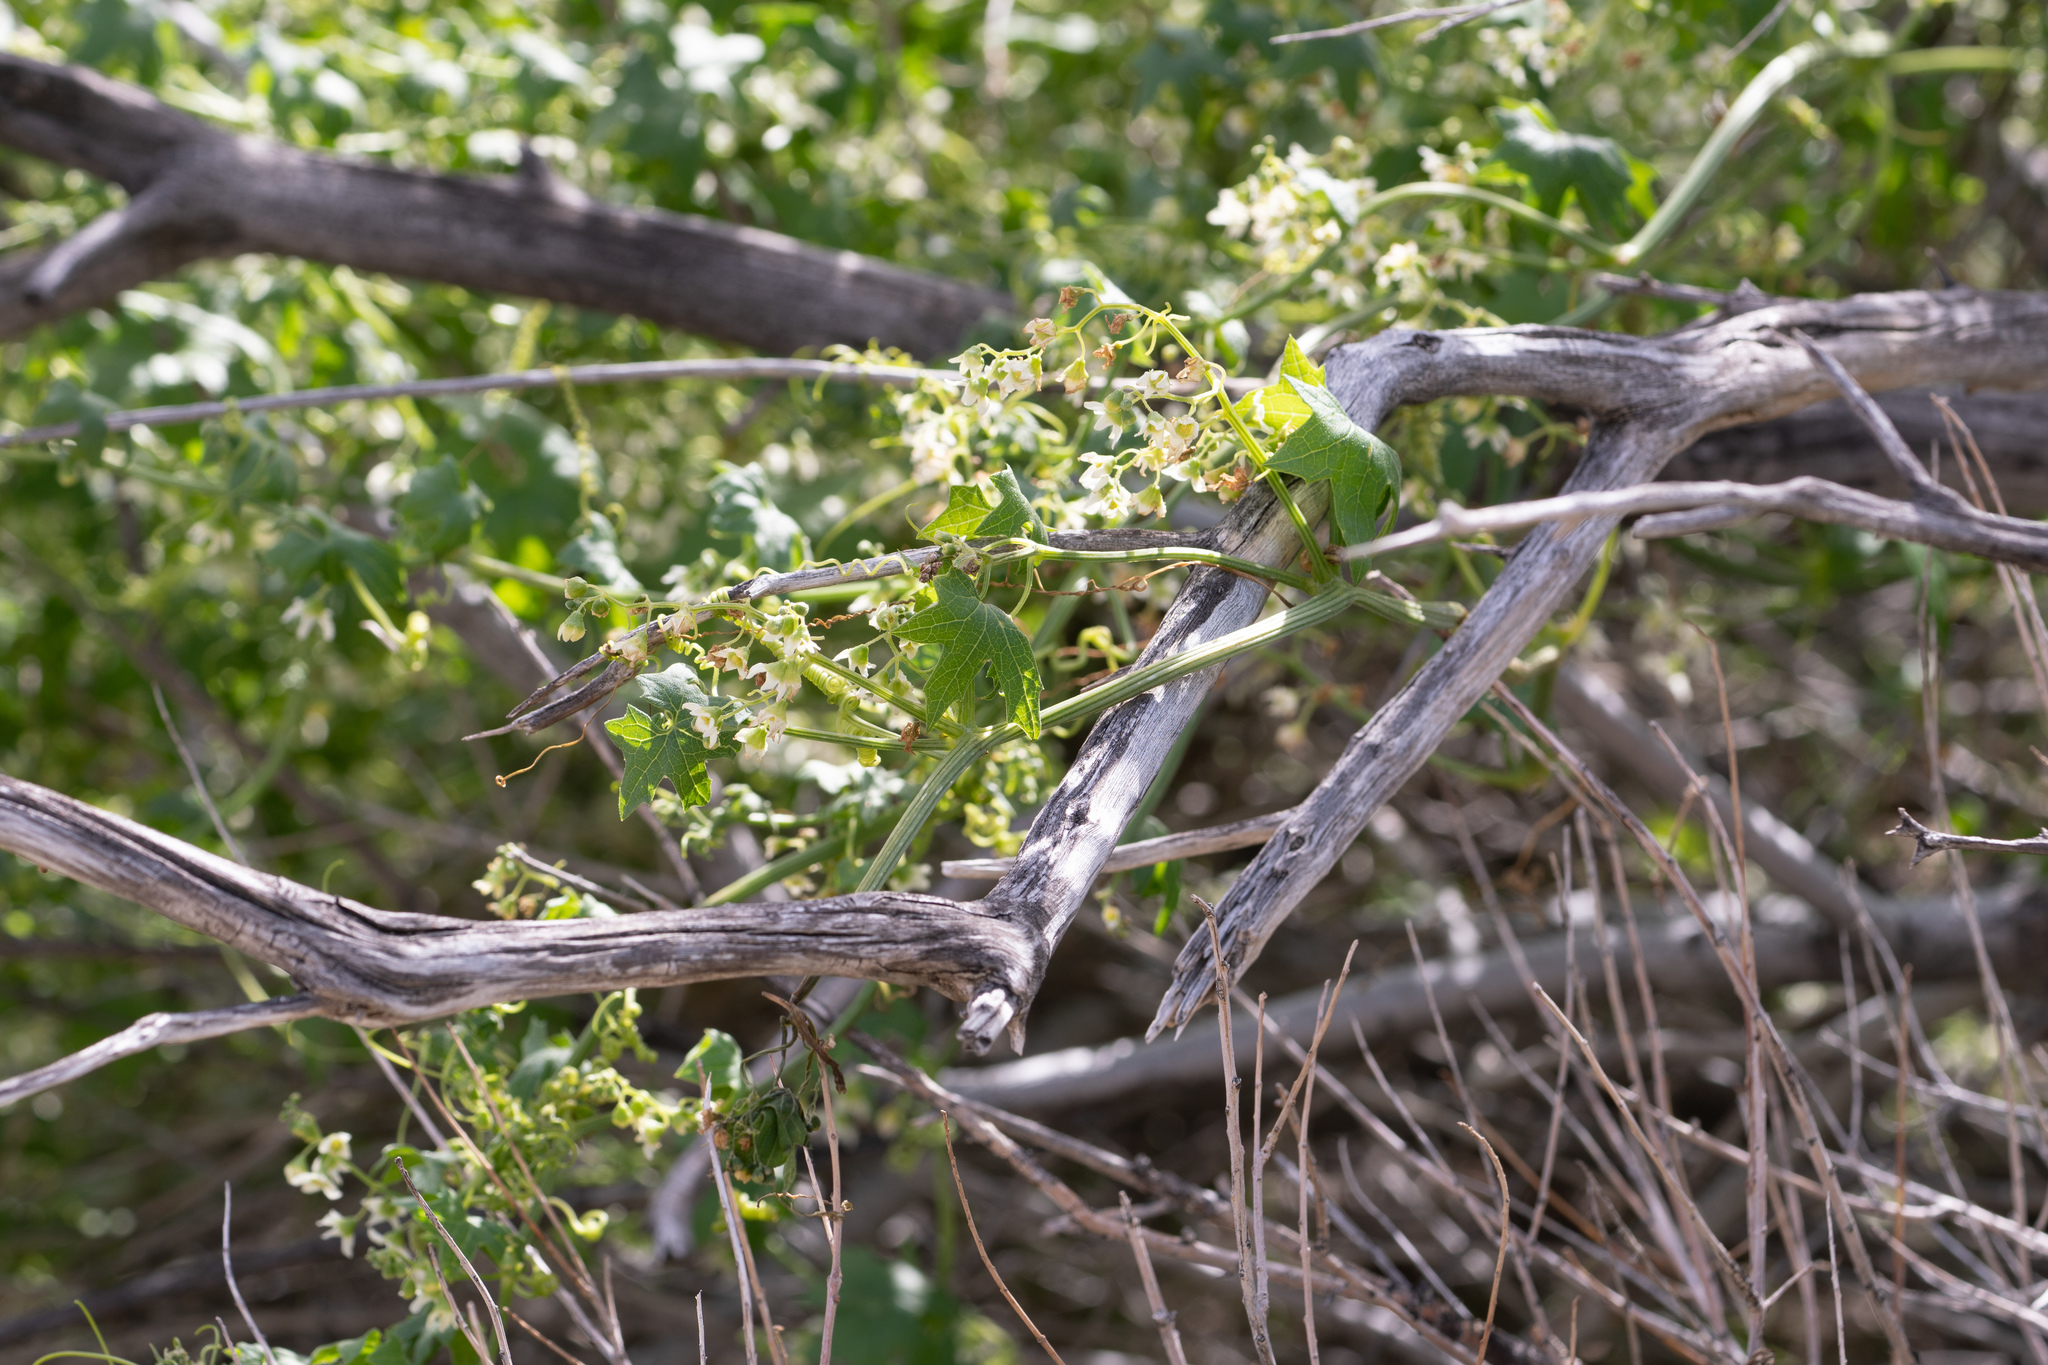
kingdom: Plantae
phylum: Tracheophyta
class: Magnoliopsida
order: Cucurbitales
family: Cucurbitaceae
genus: Marah
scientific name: Marah macrocarpa
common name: Cucamonga manroot
